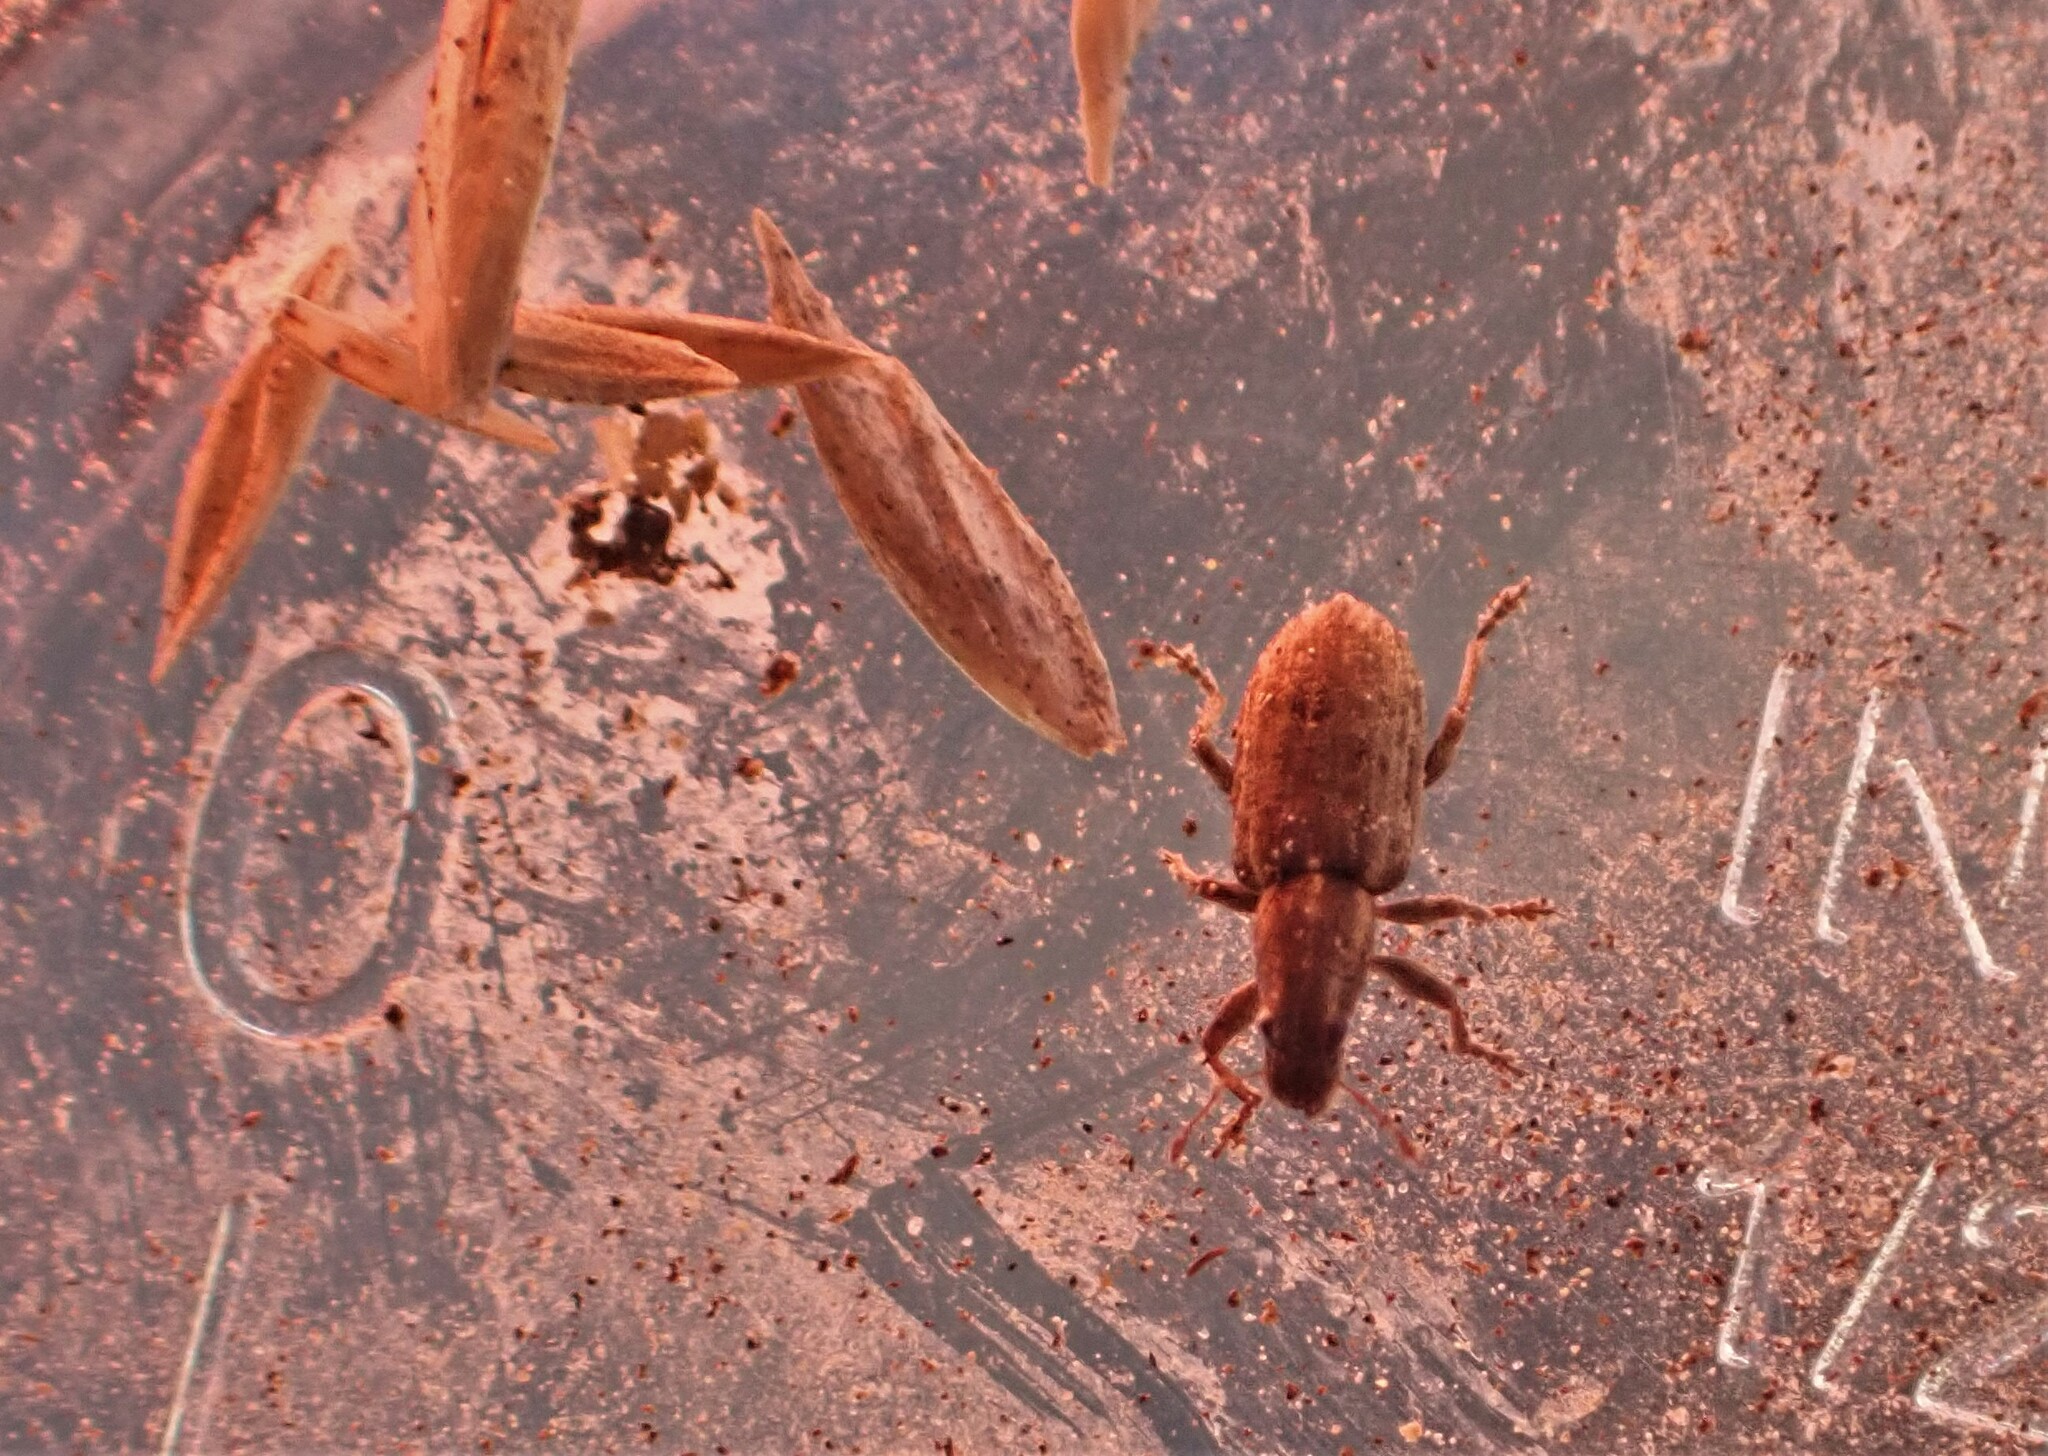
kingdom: Animalia
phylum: Arthropoda
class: Insecta
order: Coleoptera
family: Curculionidae
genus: Sitona
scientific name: Sitona discoideus
